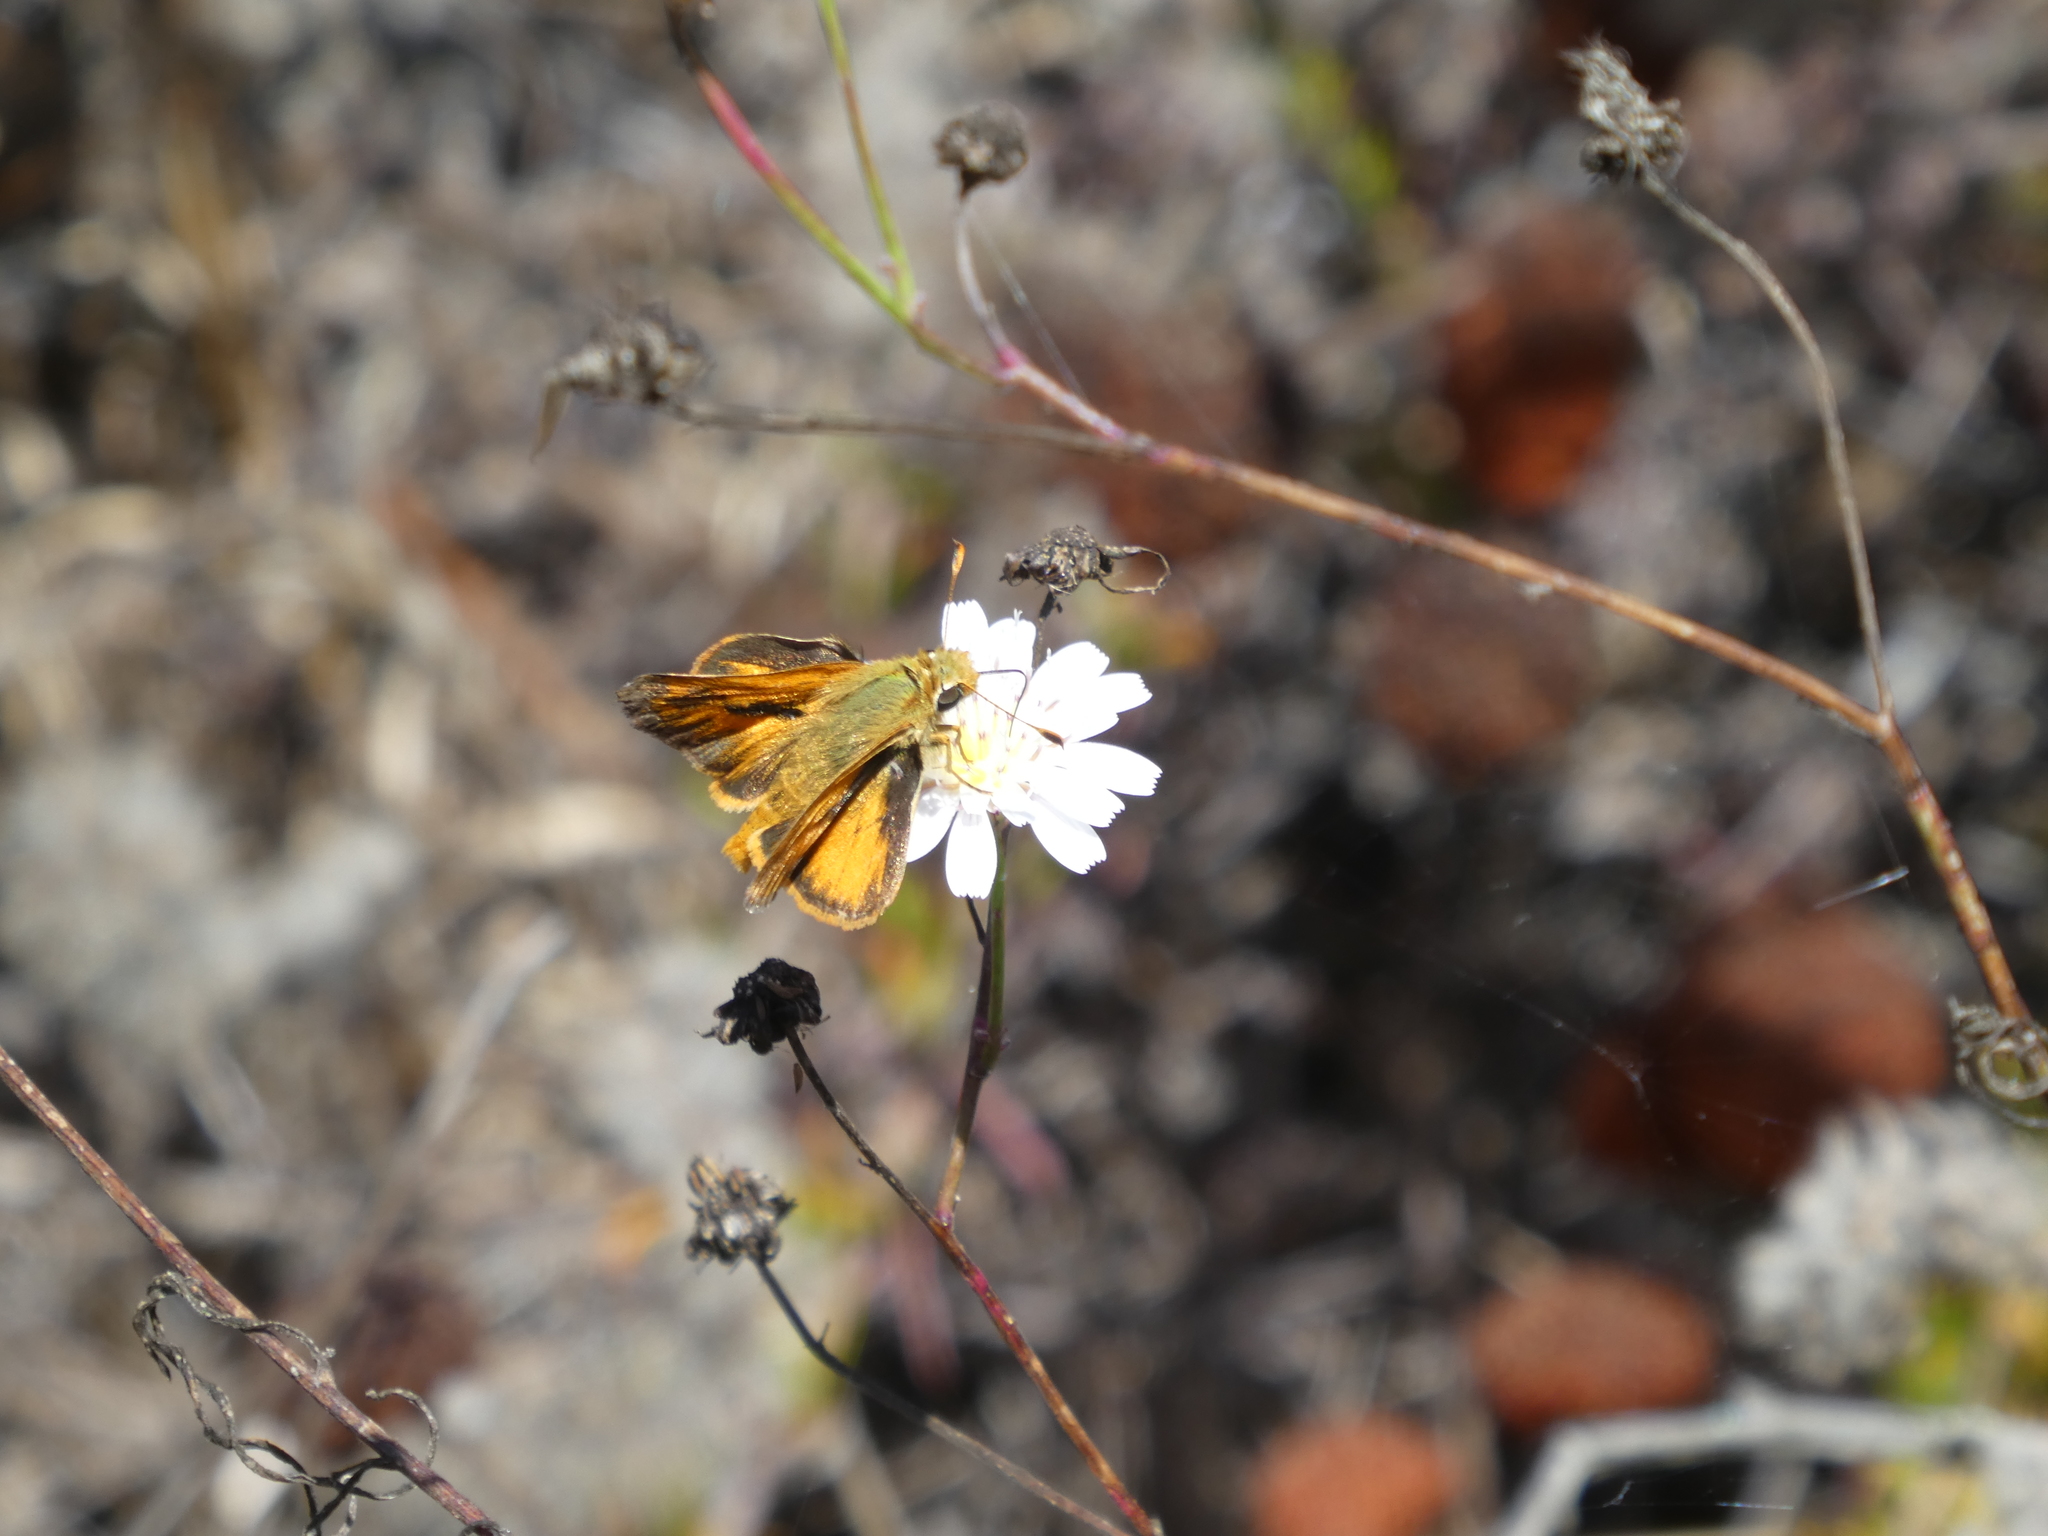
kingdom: Animalia
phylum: Arthropoda
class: Insecta
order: Lepidoptera
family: Hesperiidae
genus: Ochlodes
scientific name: Ochlodes sylvanoides
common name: Woodland skipper
